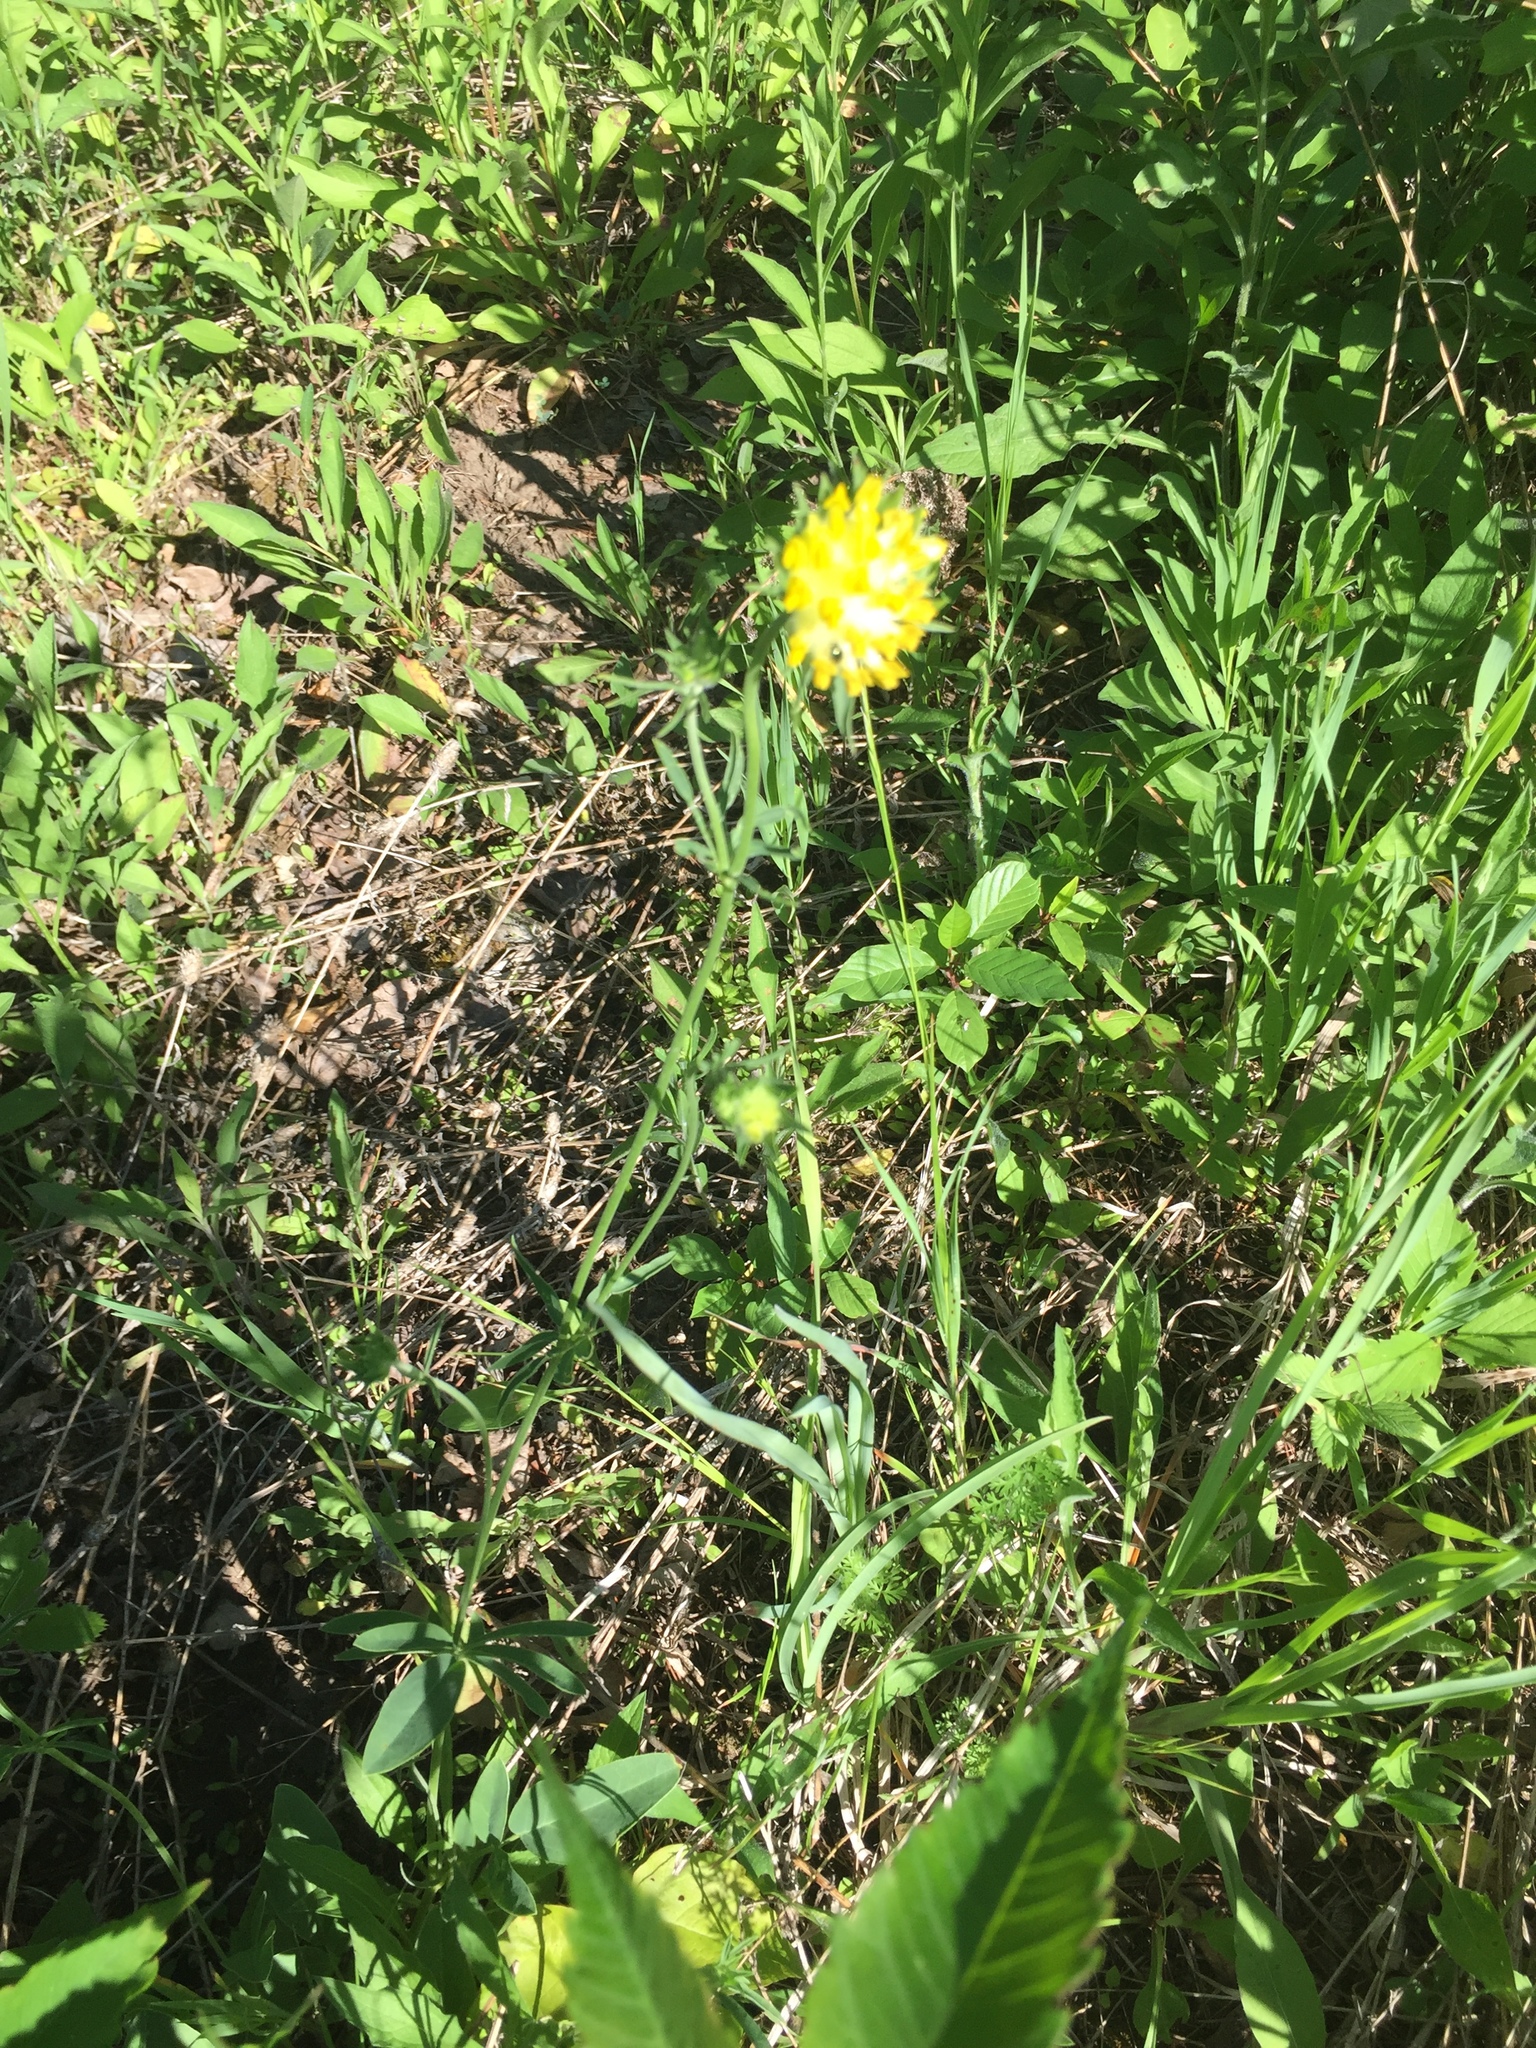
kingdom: Plantae
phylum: Tracheophyta
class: Magnoliopsida
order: Fabales
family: Fabaceae
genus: Anthyllis
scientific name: Anthyllis vulneraria
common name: Kidney vetch
